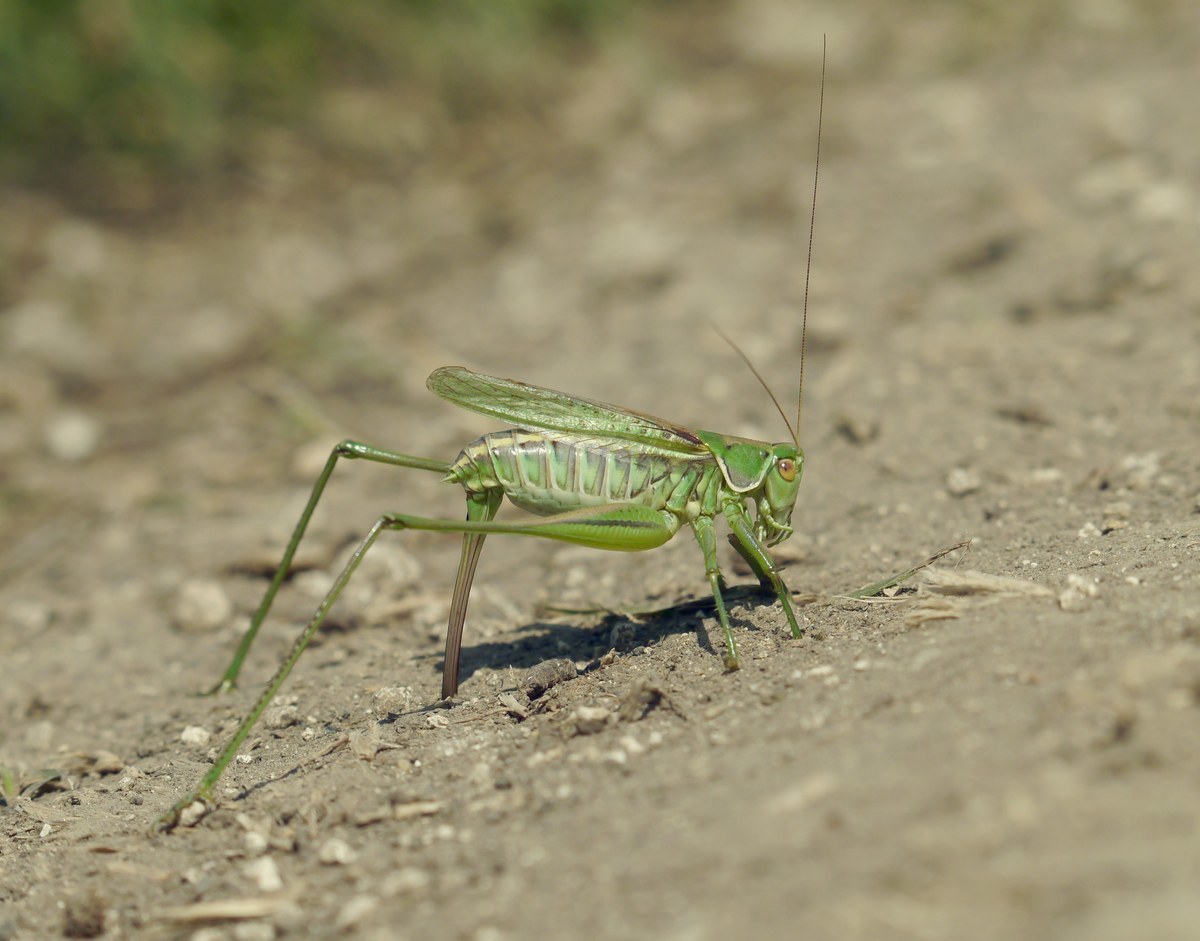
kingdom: Animalia
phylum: Arthropoda
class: Insecta
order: Orthoptera
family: Tettigoniidae
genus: Gampsocleis
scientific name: Gampsocleis glabra
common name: Heath bushcricket
